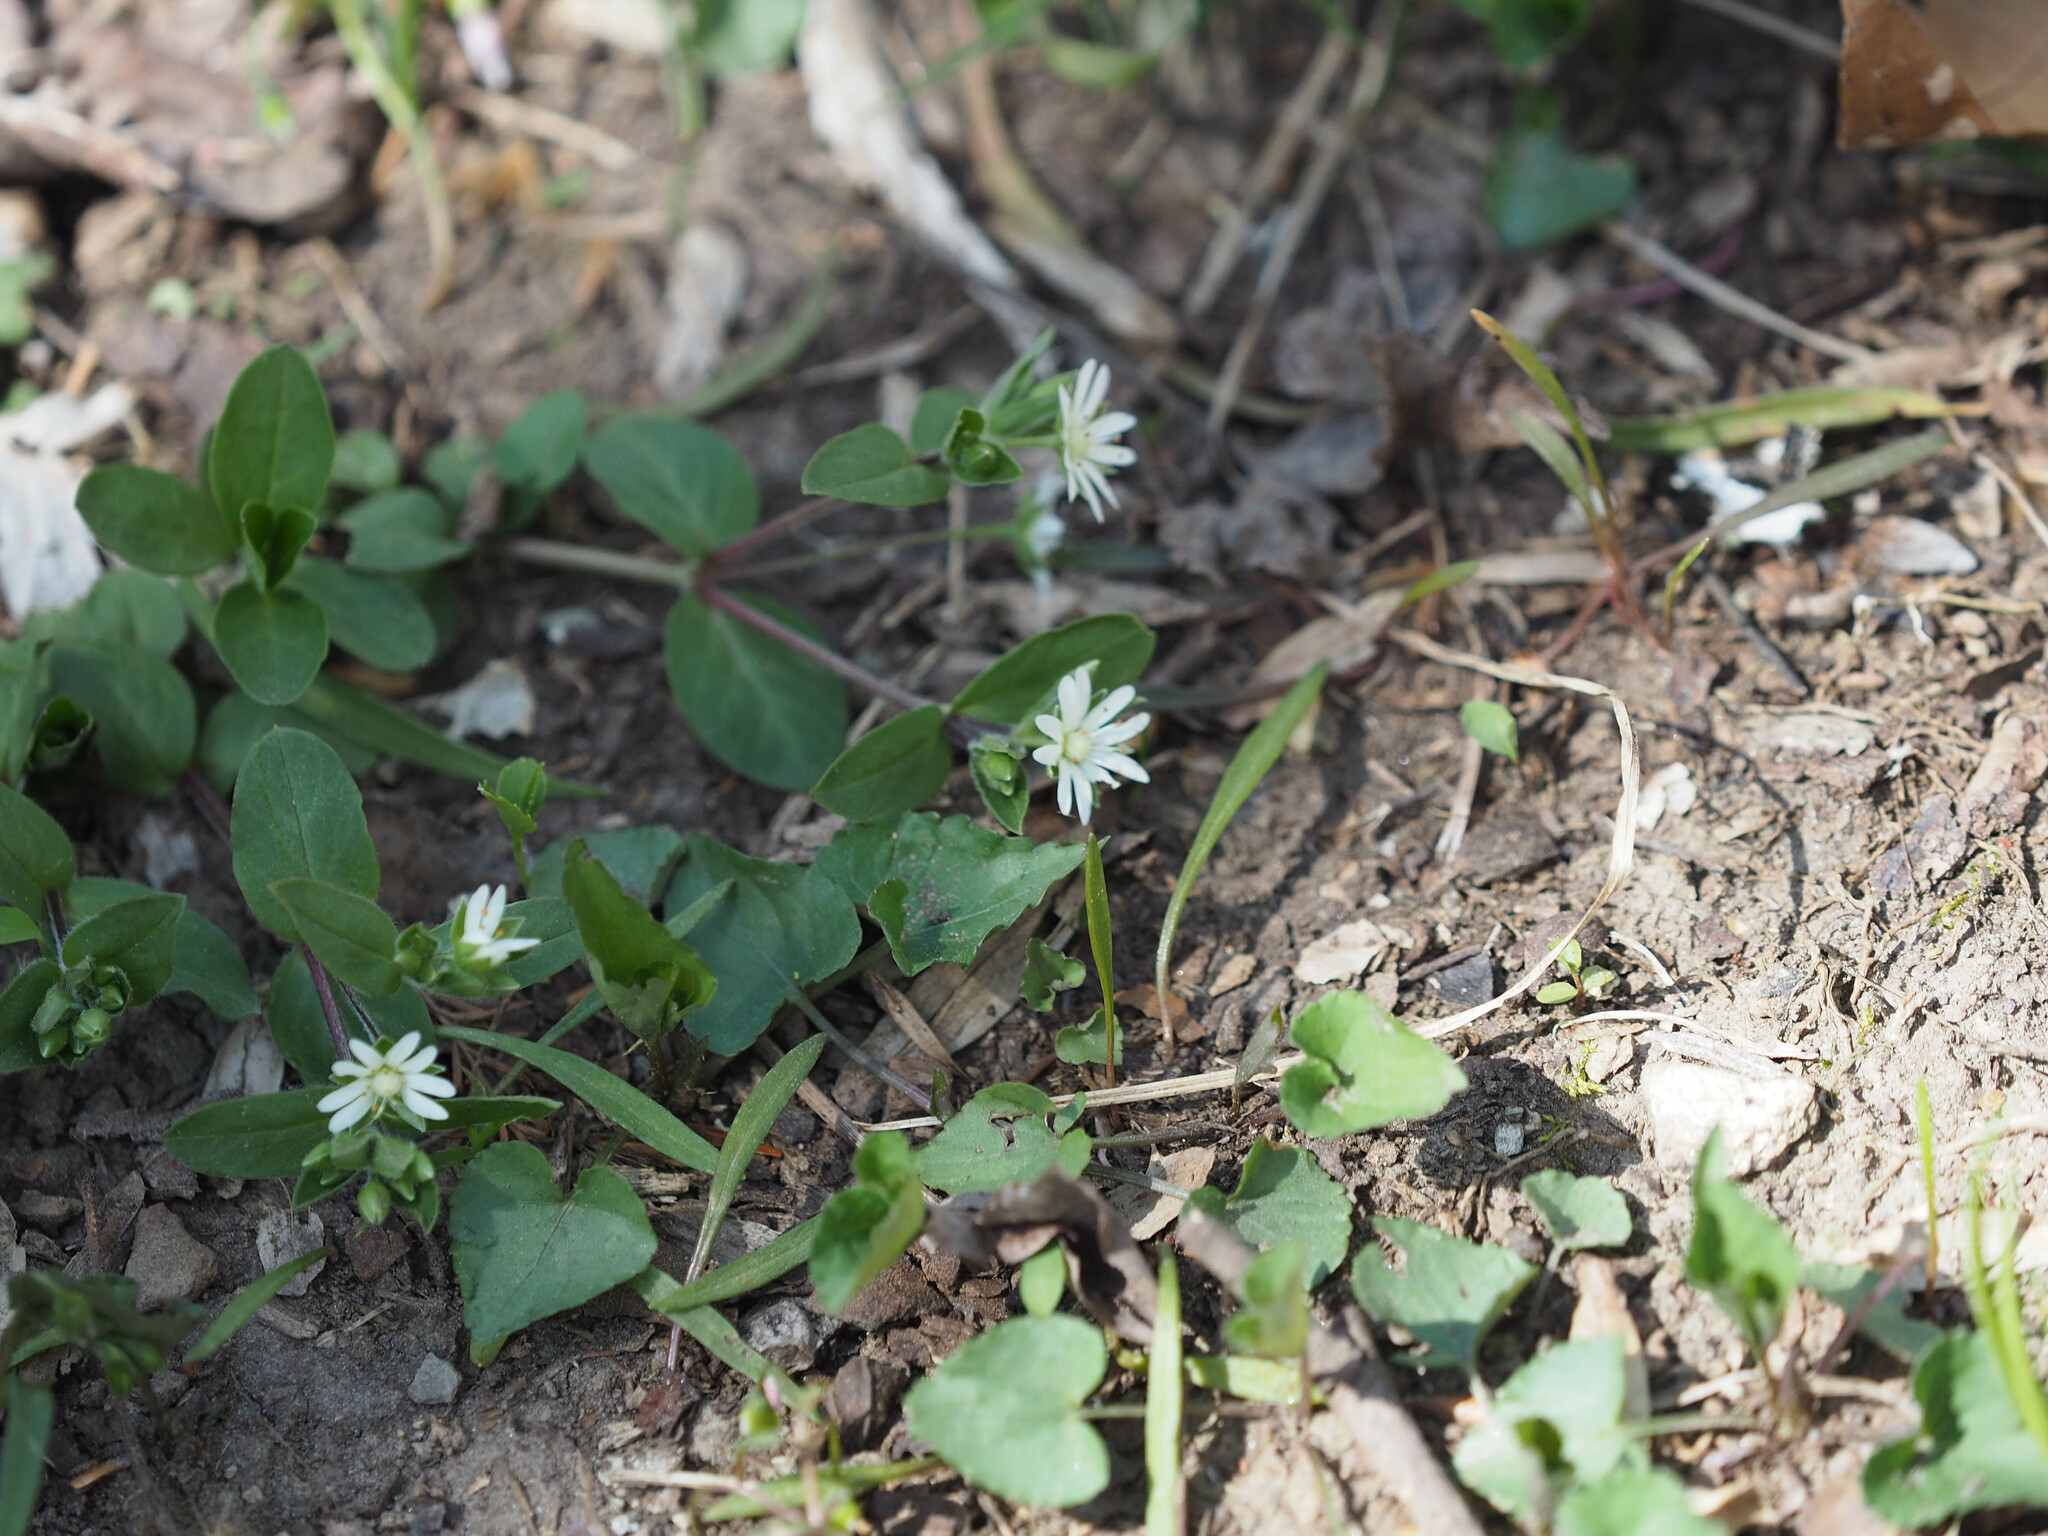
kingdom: Plantae
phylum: Tracheophyta
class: Magnoliopsida
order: Caryophyllales
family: Caryophyllaceae
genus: Stellaria
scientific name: Stellaria pubera
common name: Star chickweed
